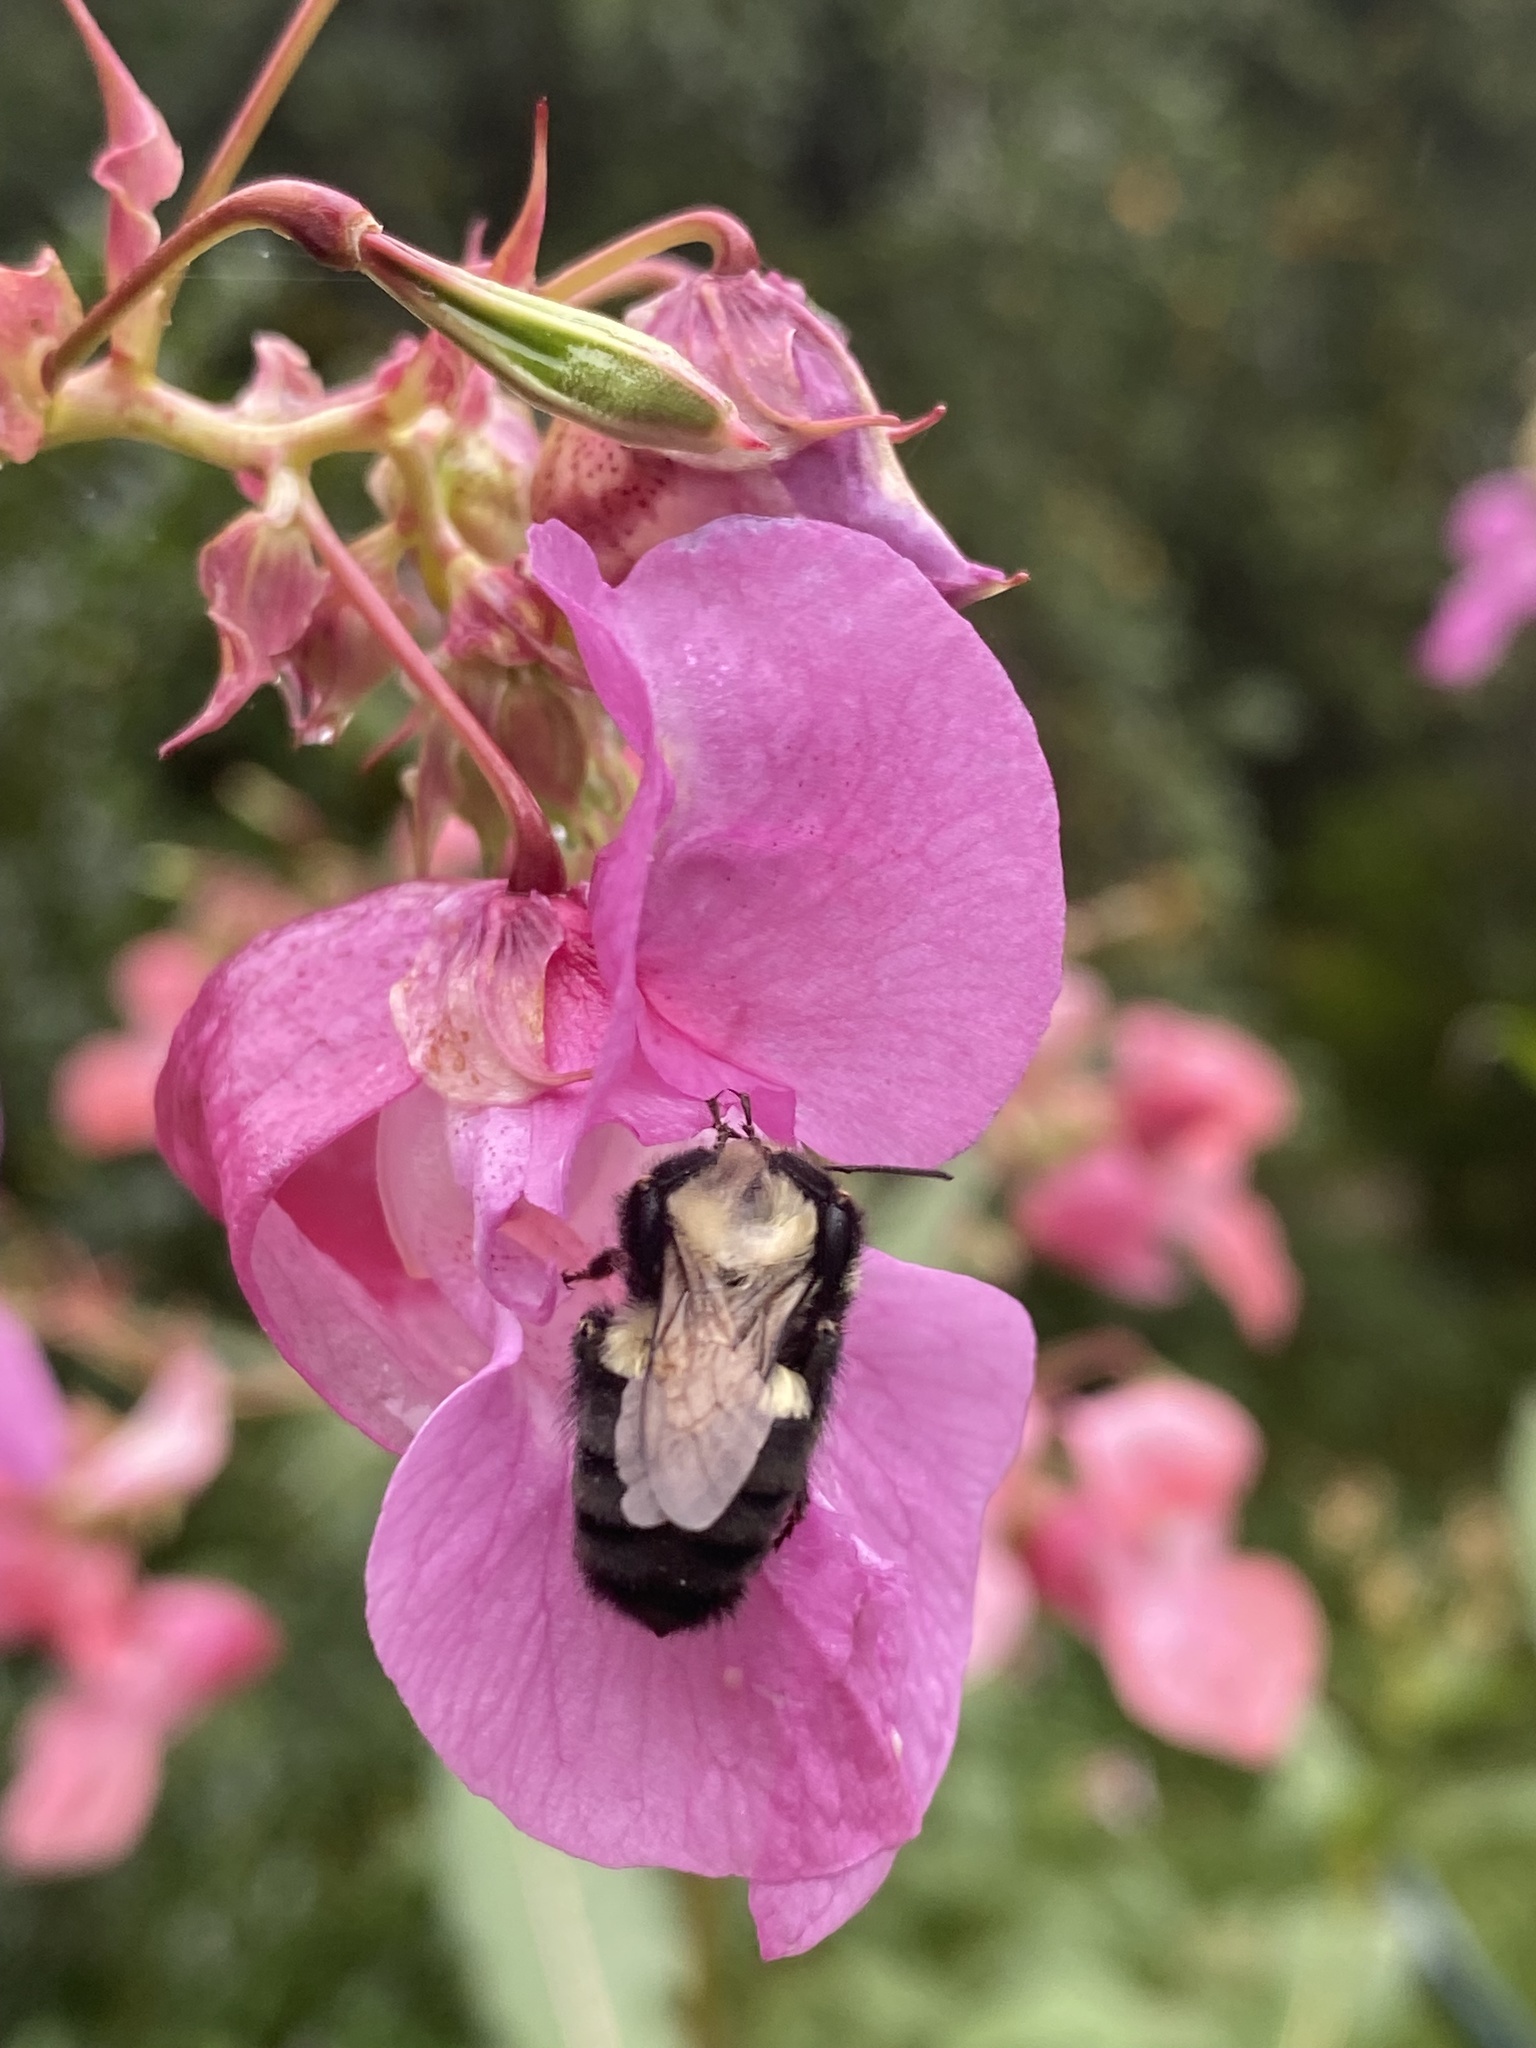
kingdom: Animalia
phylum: Arthropoda
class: Insecta
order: Hymenoptera
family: Apidae
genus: Bombus
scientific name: Bombus impatiens
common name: Common eastern bumble bee
